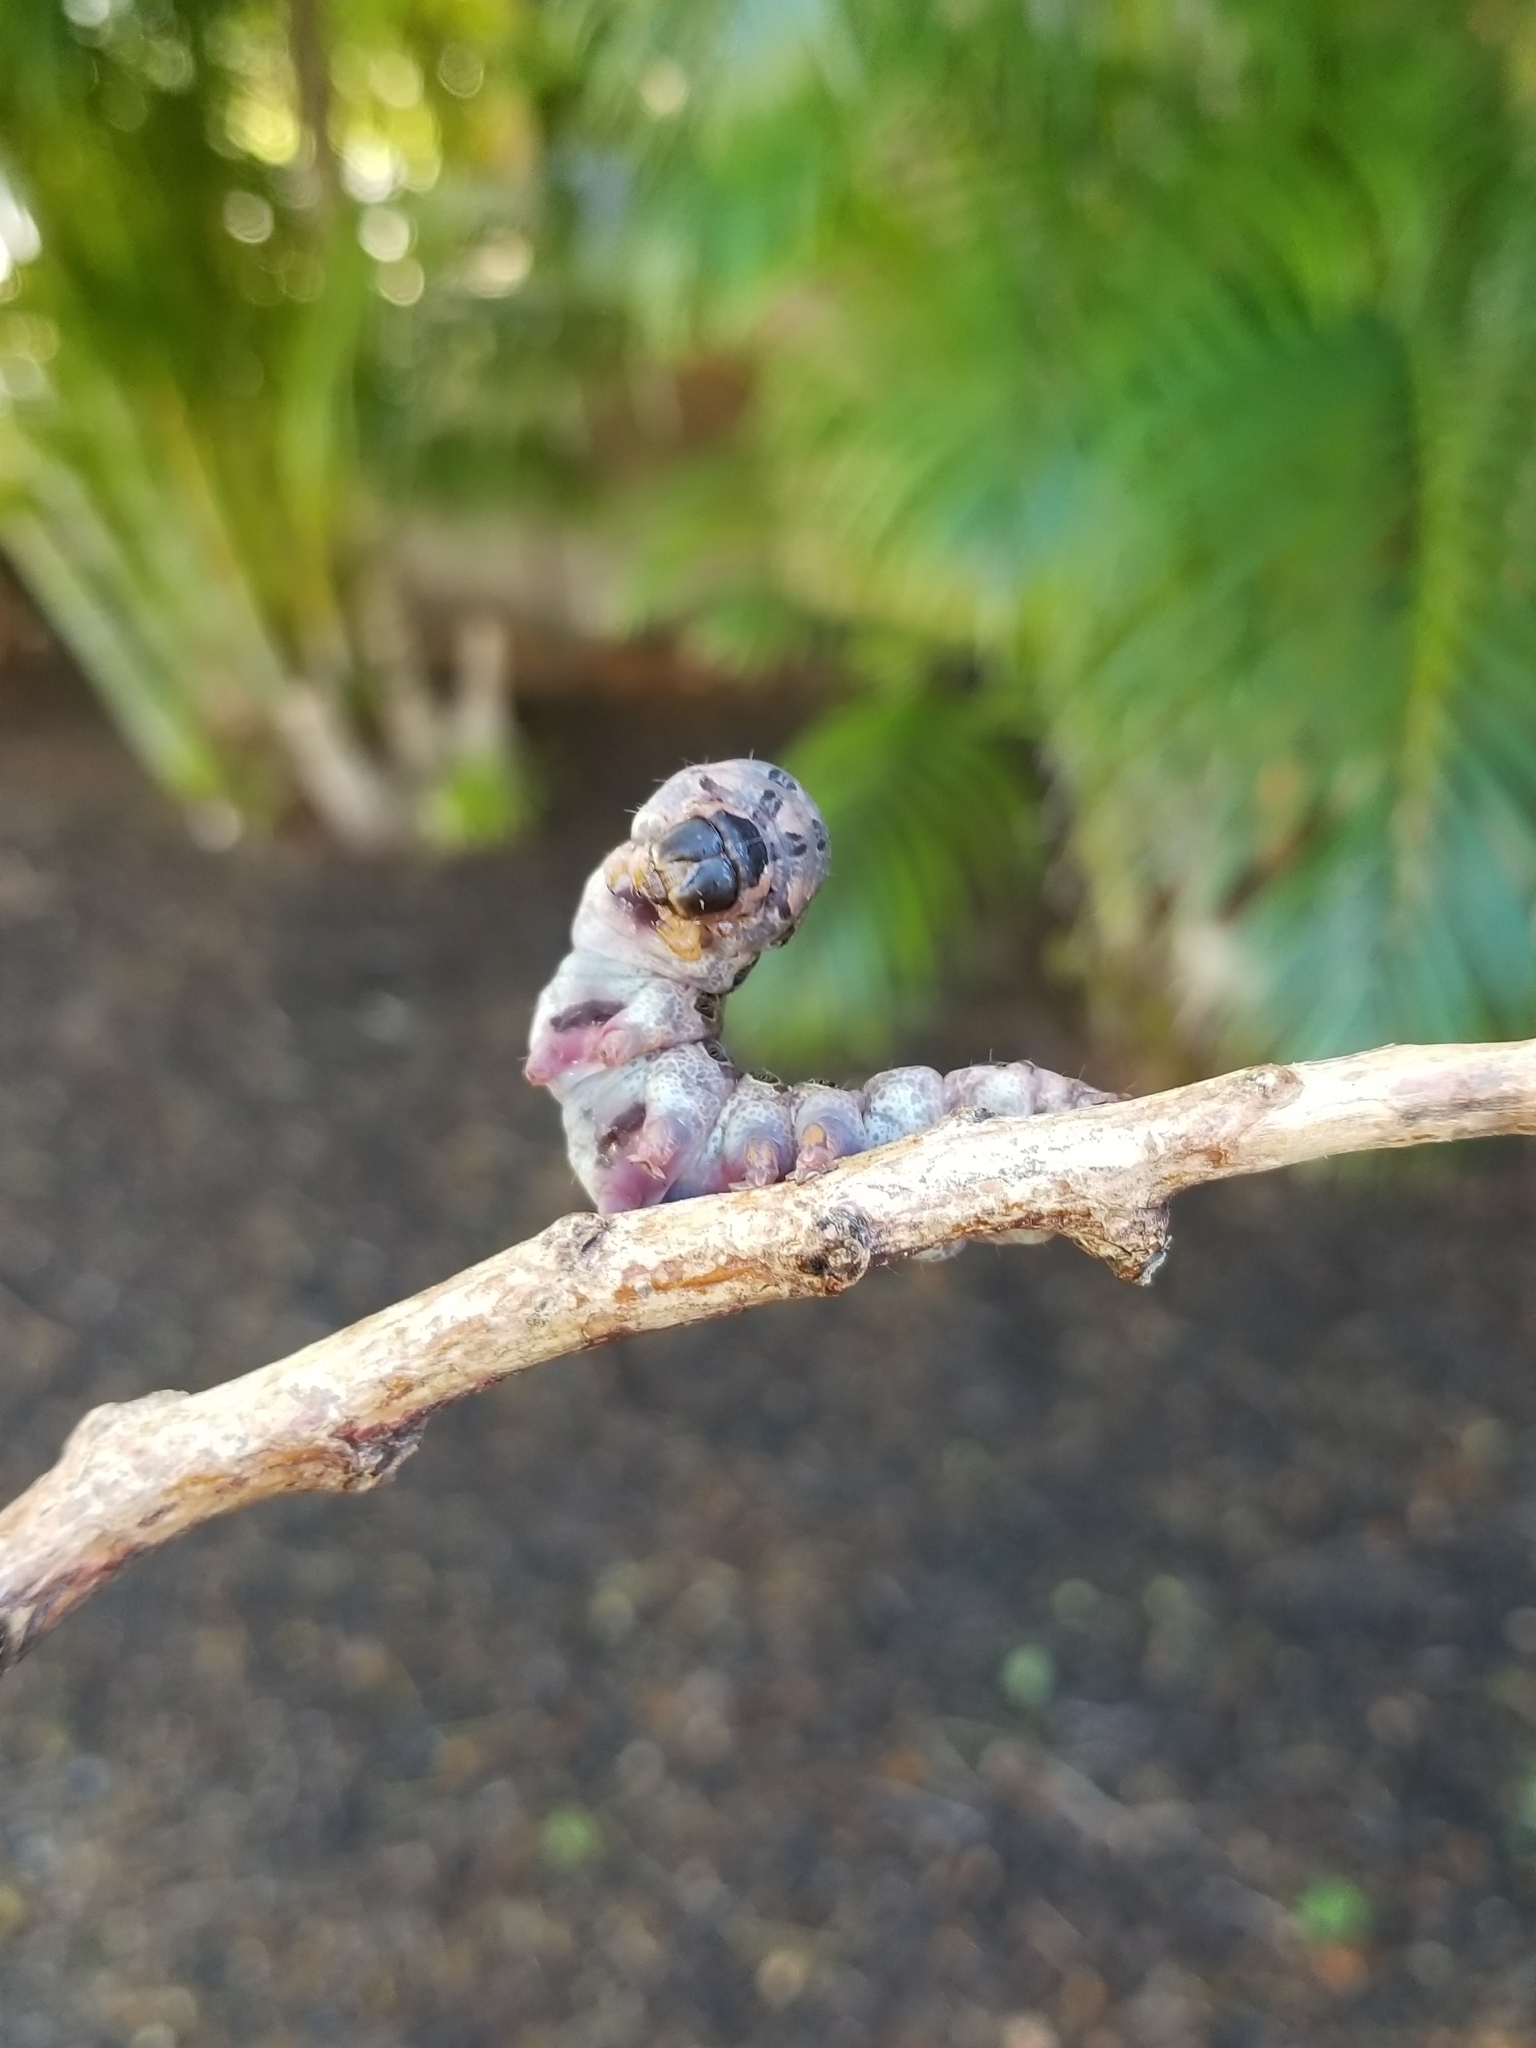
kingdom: Animalia
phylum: Arthropoda
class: Insecta
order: Lepidoptera
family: Erebidae
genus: Ascalapha
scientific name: Ascalapha odorata
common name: Black witch
